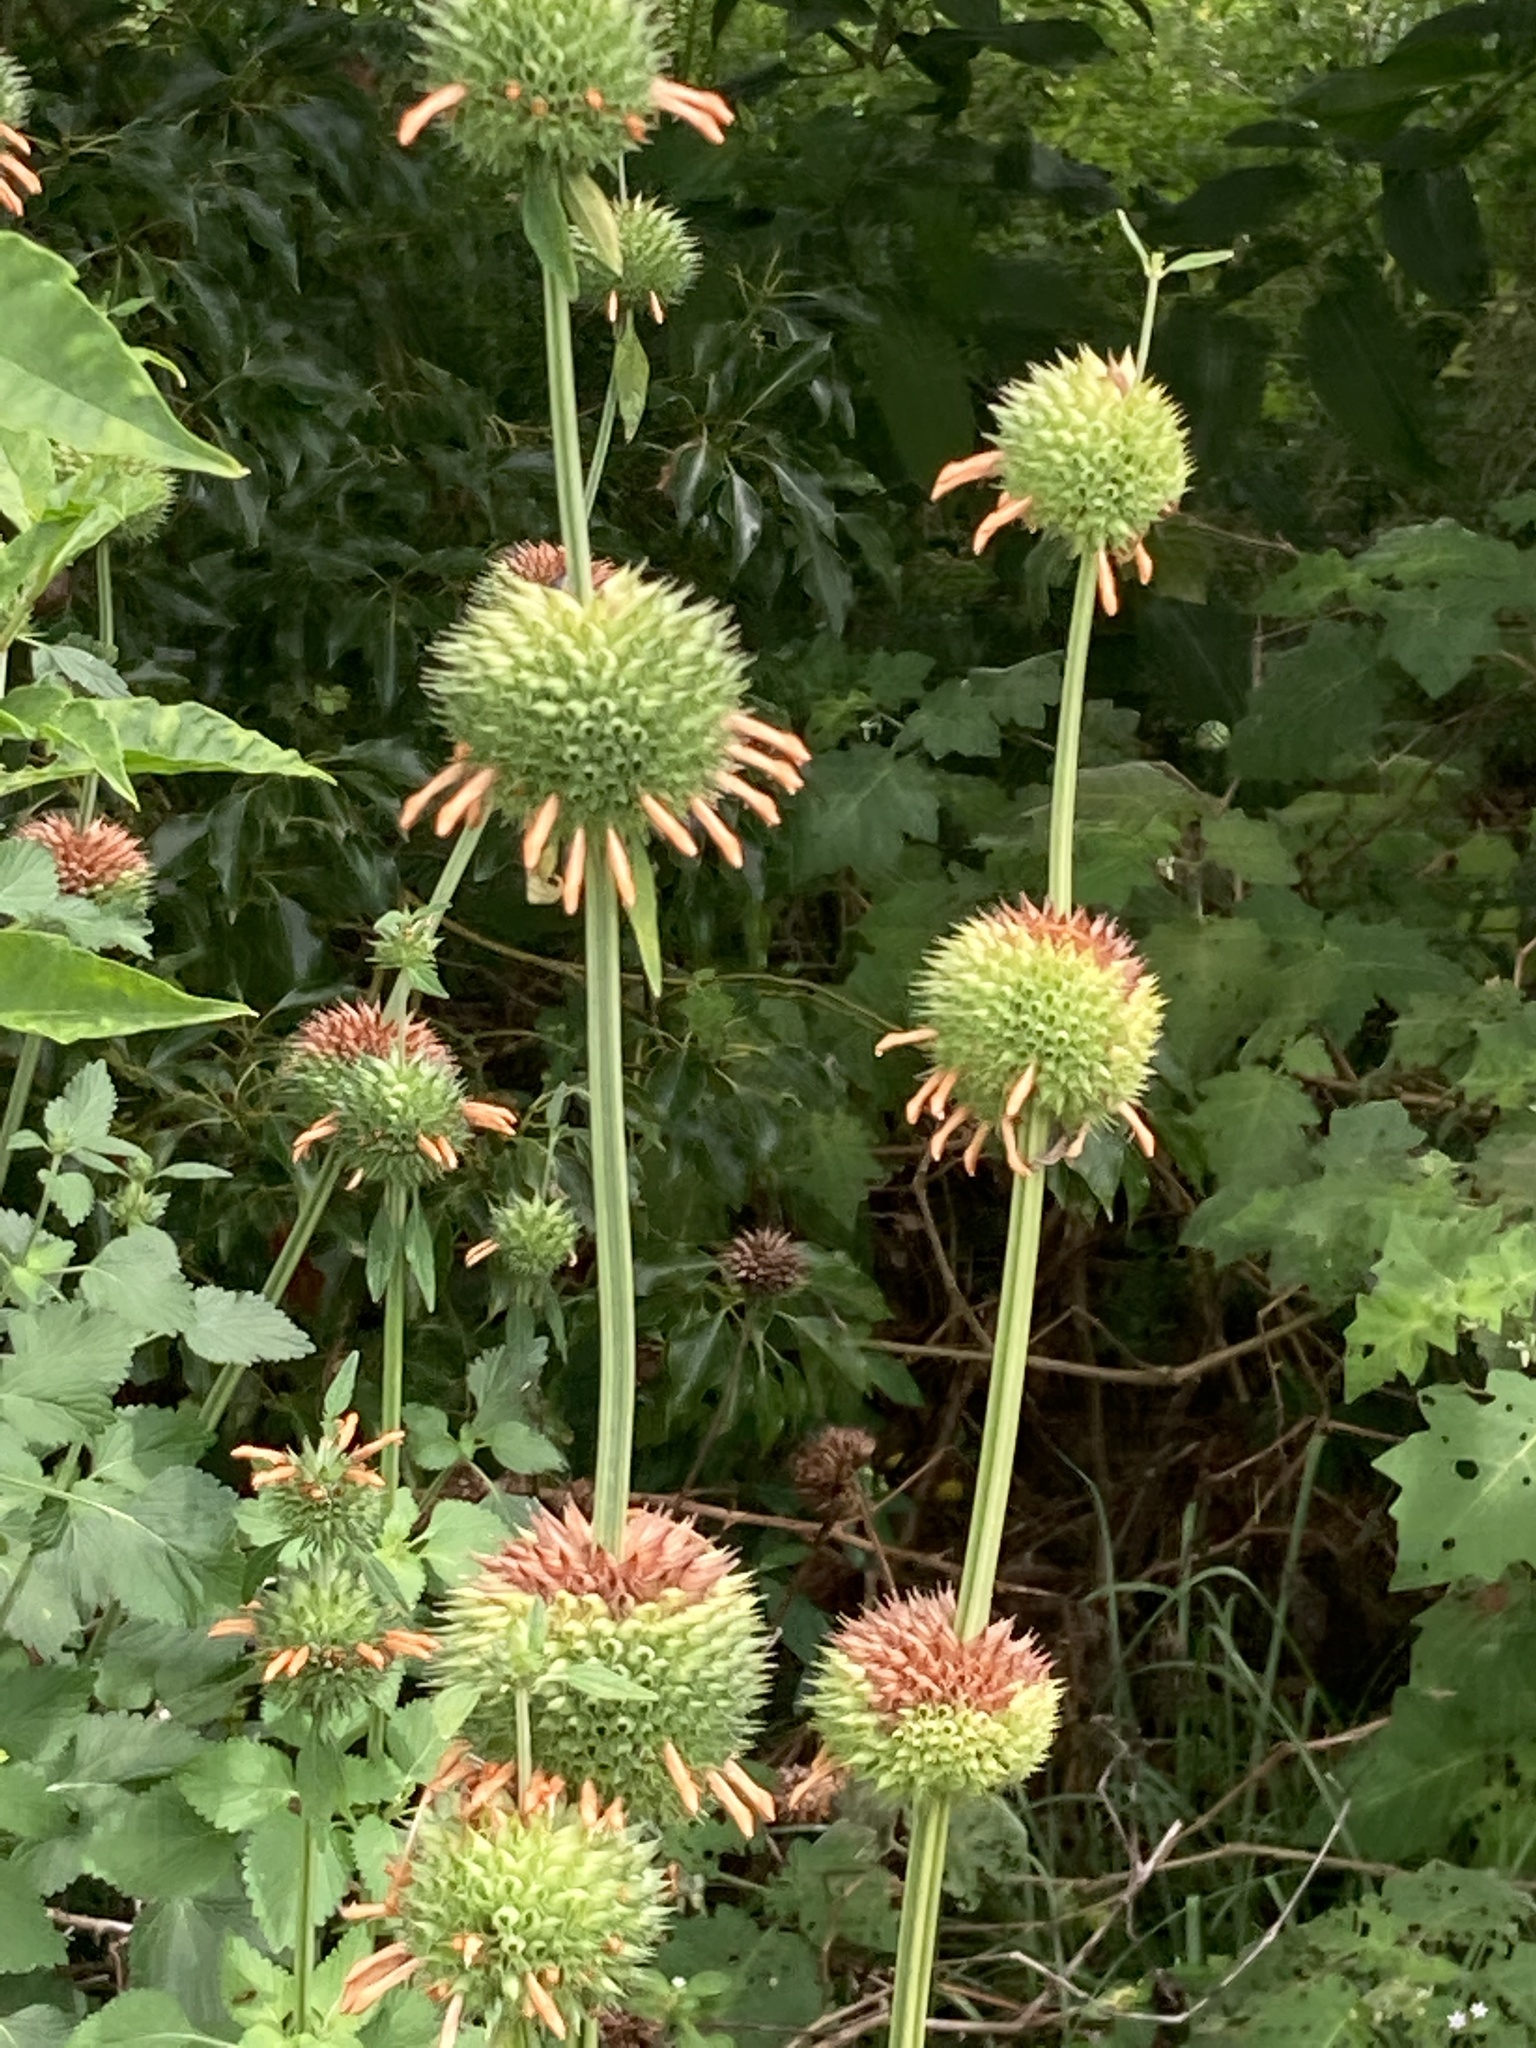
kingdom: Plantae
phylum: Tracheophyta
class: Magnoliopsida
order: Lamiales
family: Lamiaceae
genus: Leonotis
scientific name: Leonotis nepetifolia
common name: Christmas candlestick
